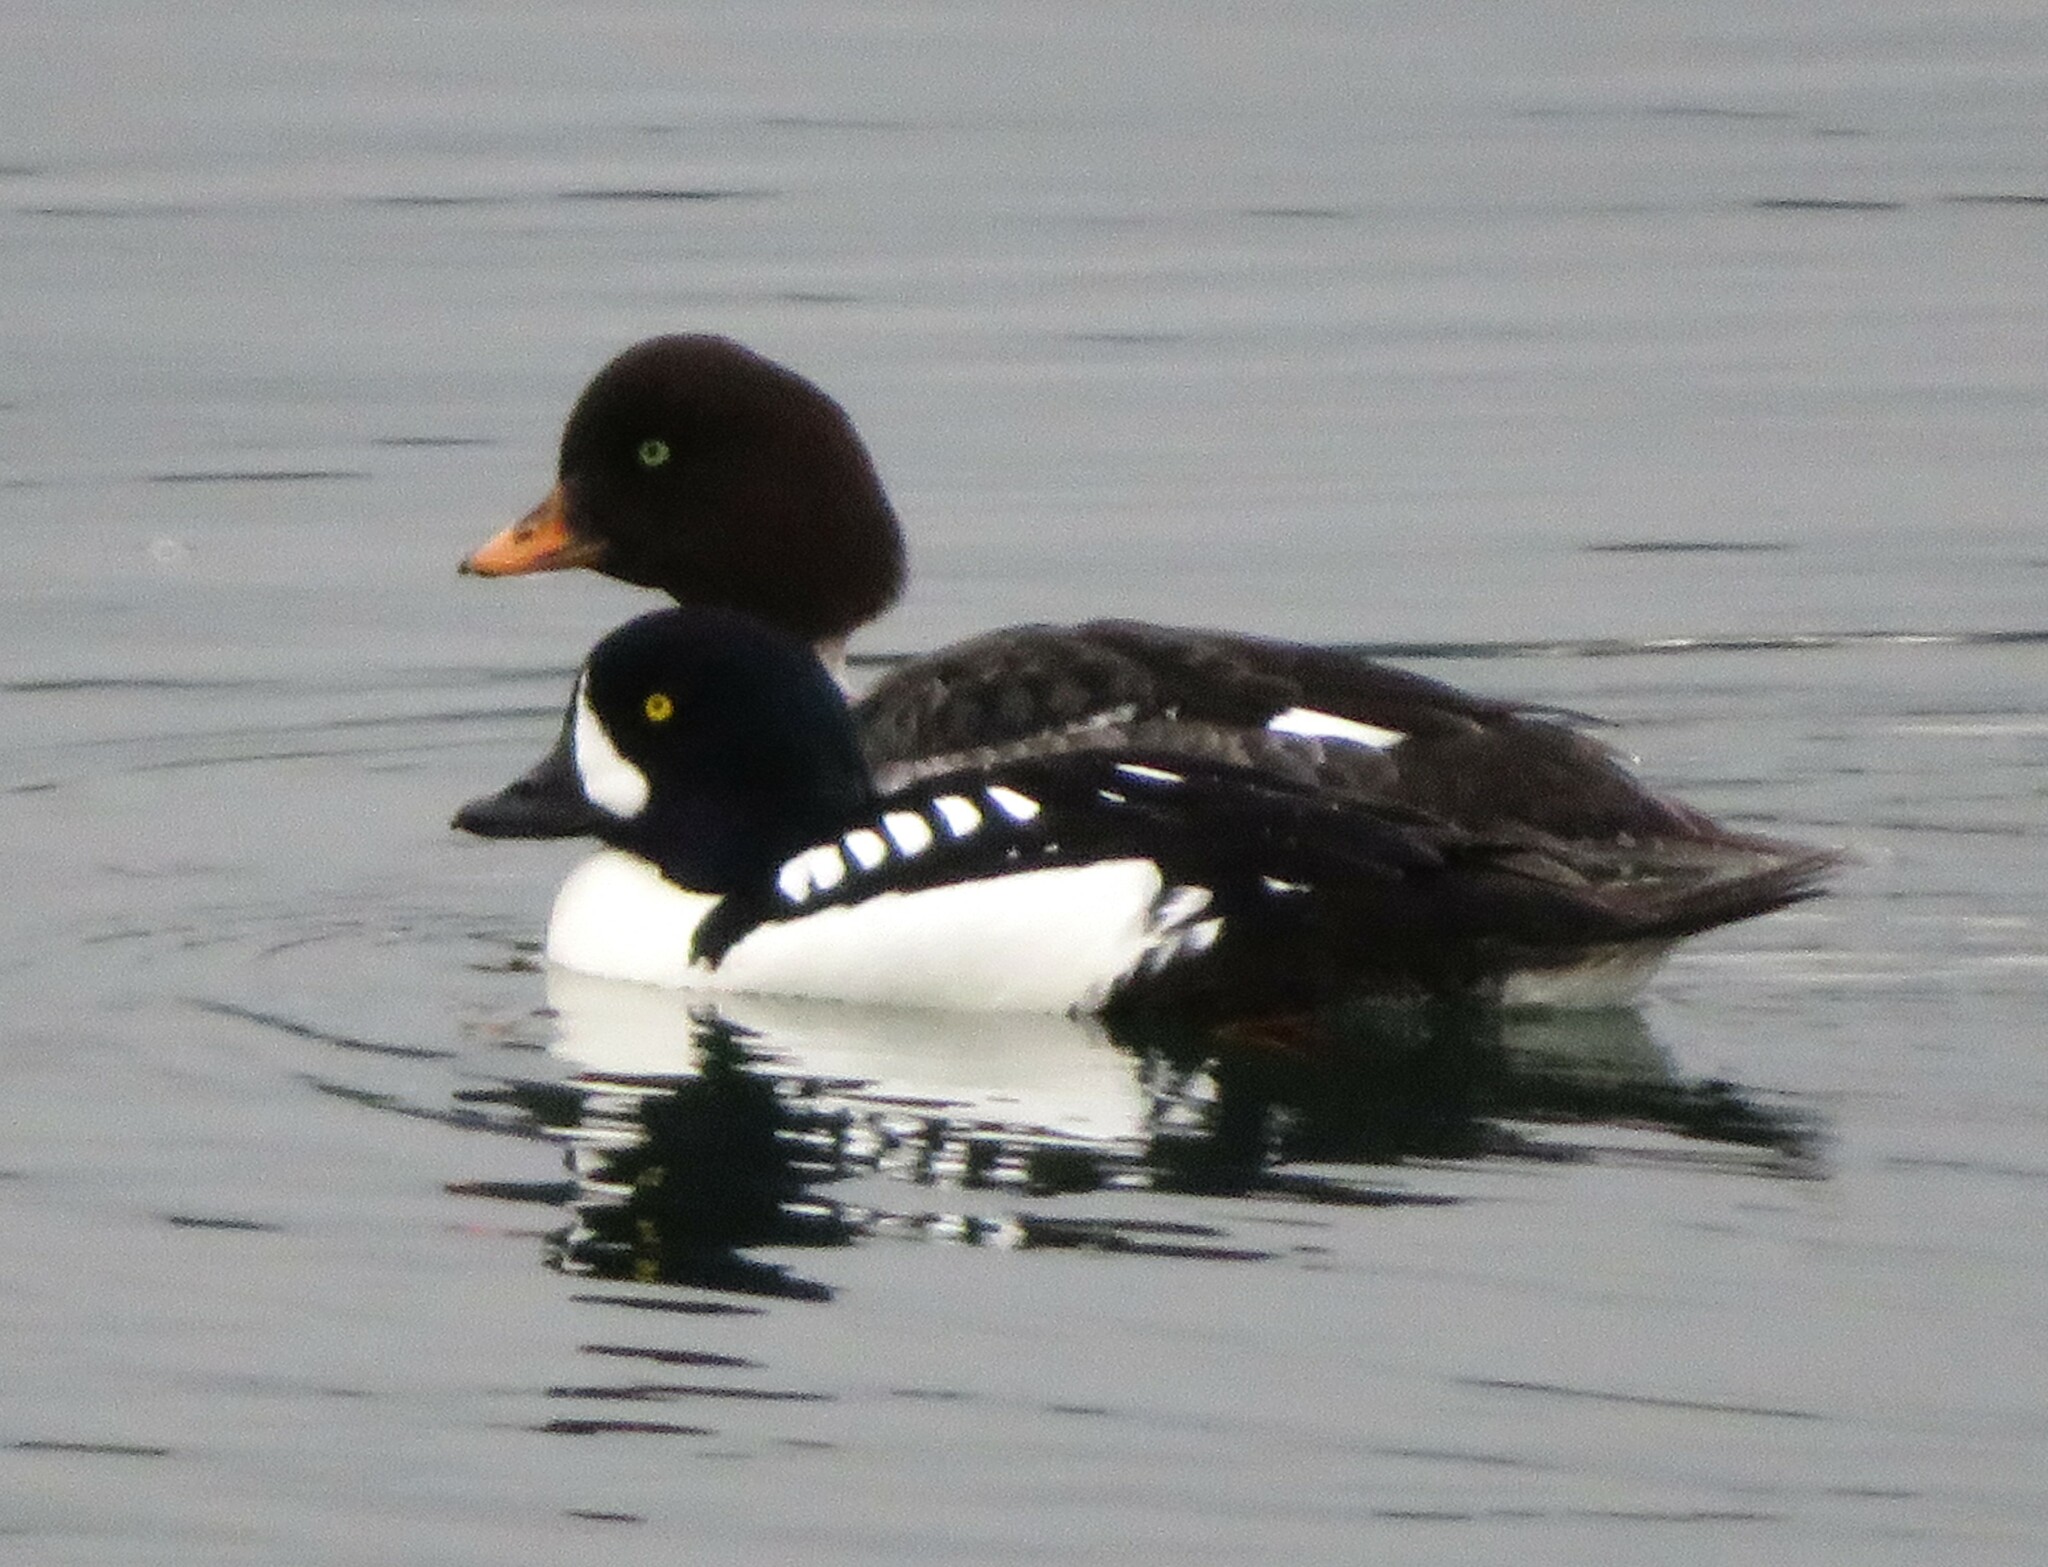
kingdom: Animalia
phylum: Chordata
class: Aves
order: Anseriformes
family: Anatidae
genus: Bucephala
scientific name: Bucephala islandica
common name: Barrow's goldeneye
